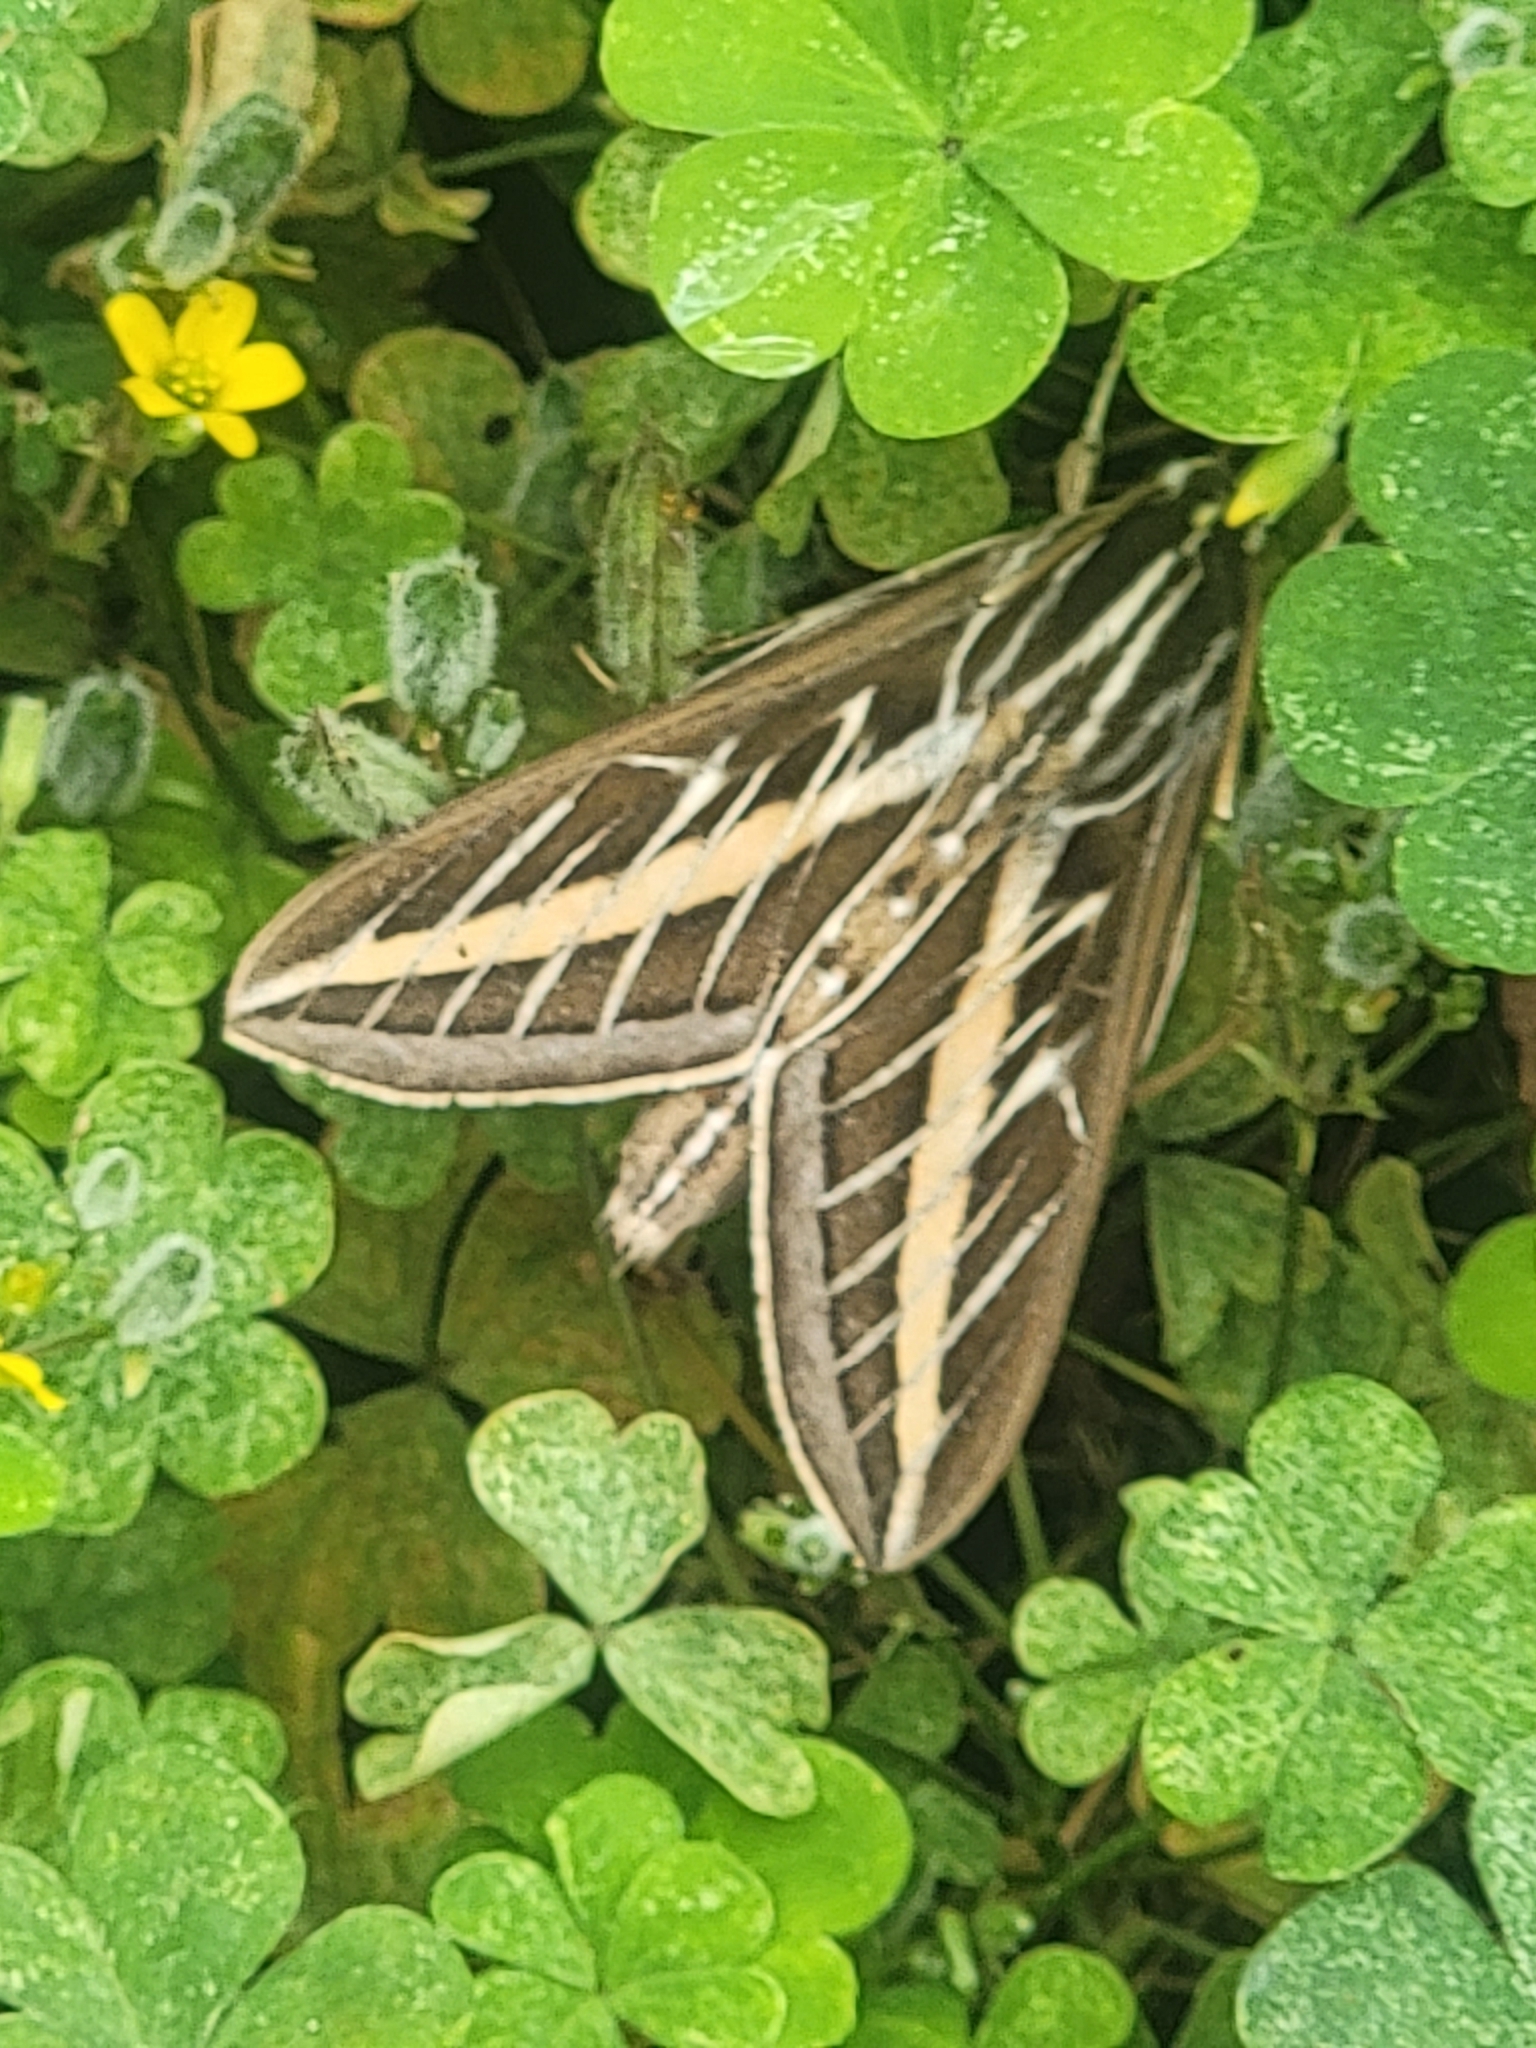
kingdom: Animalia
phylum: Arthropoda
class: Insecta
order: Lepidoptera
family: Sphingidae
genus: Hyles
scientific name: Hyles lineata
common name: White-lined sphinx
